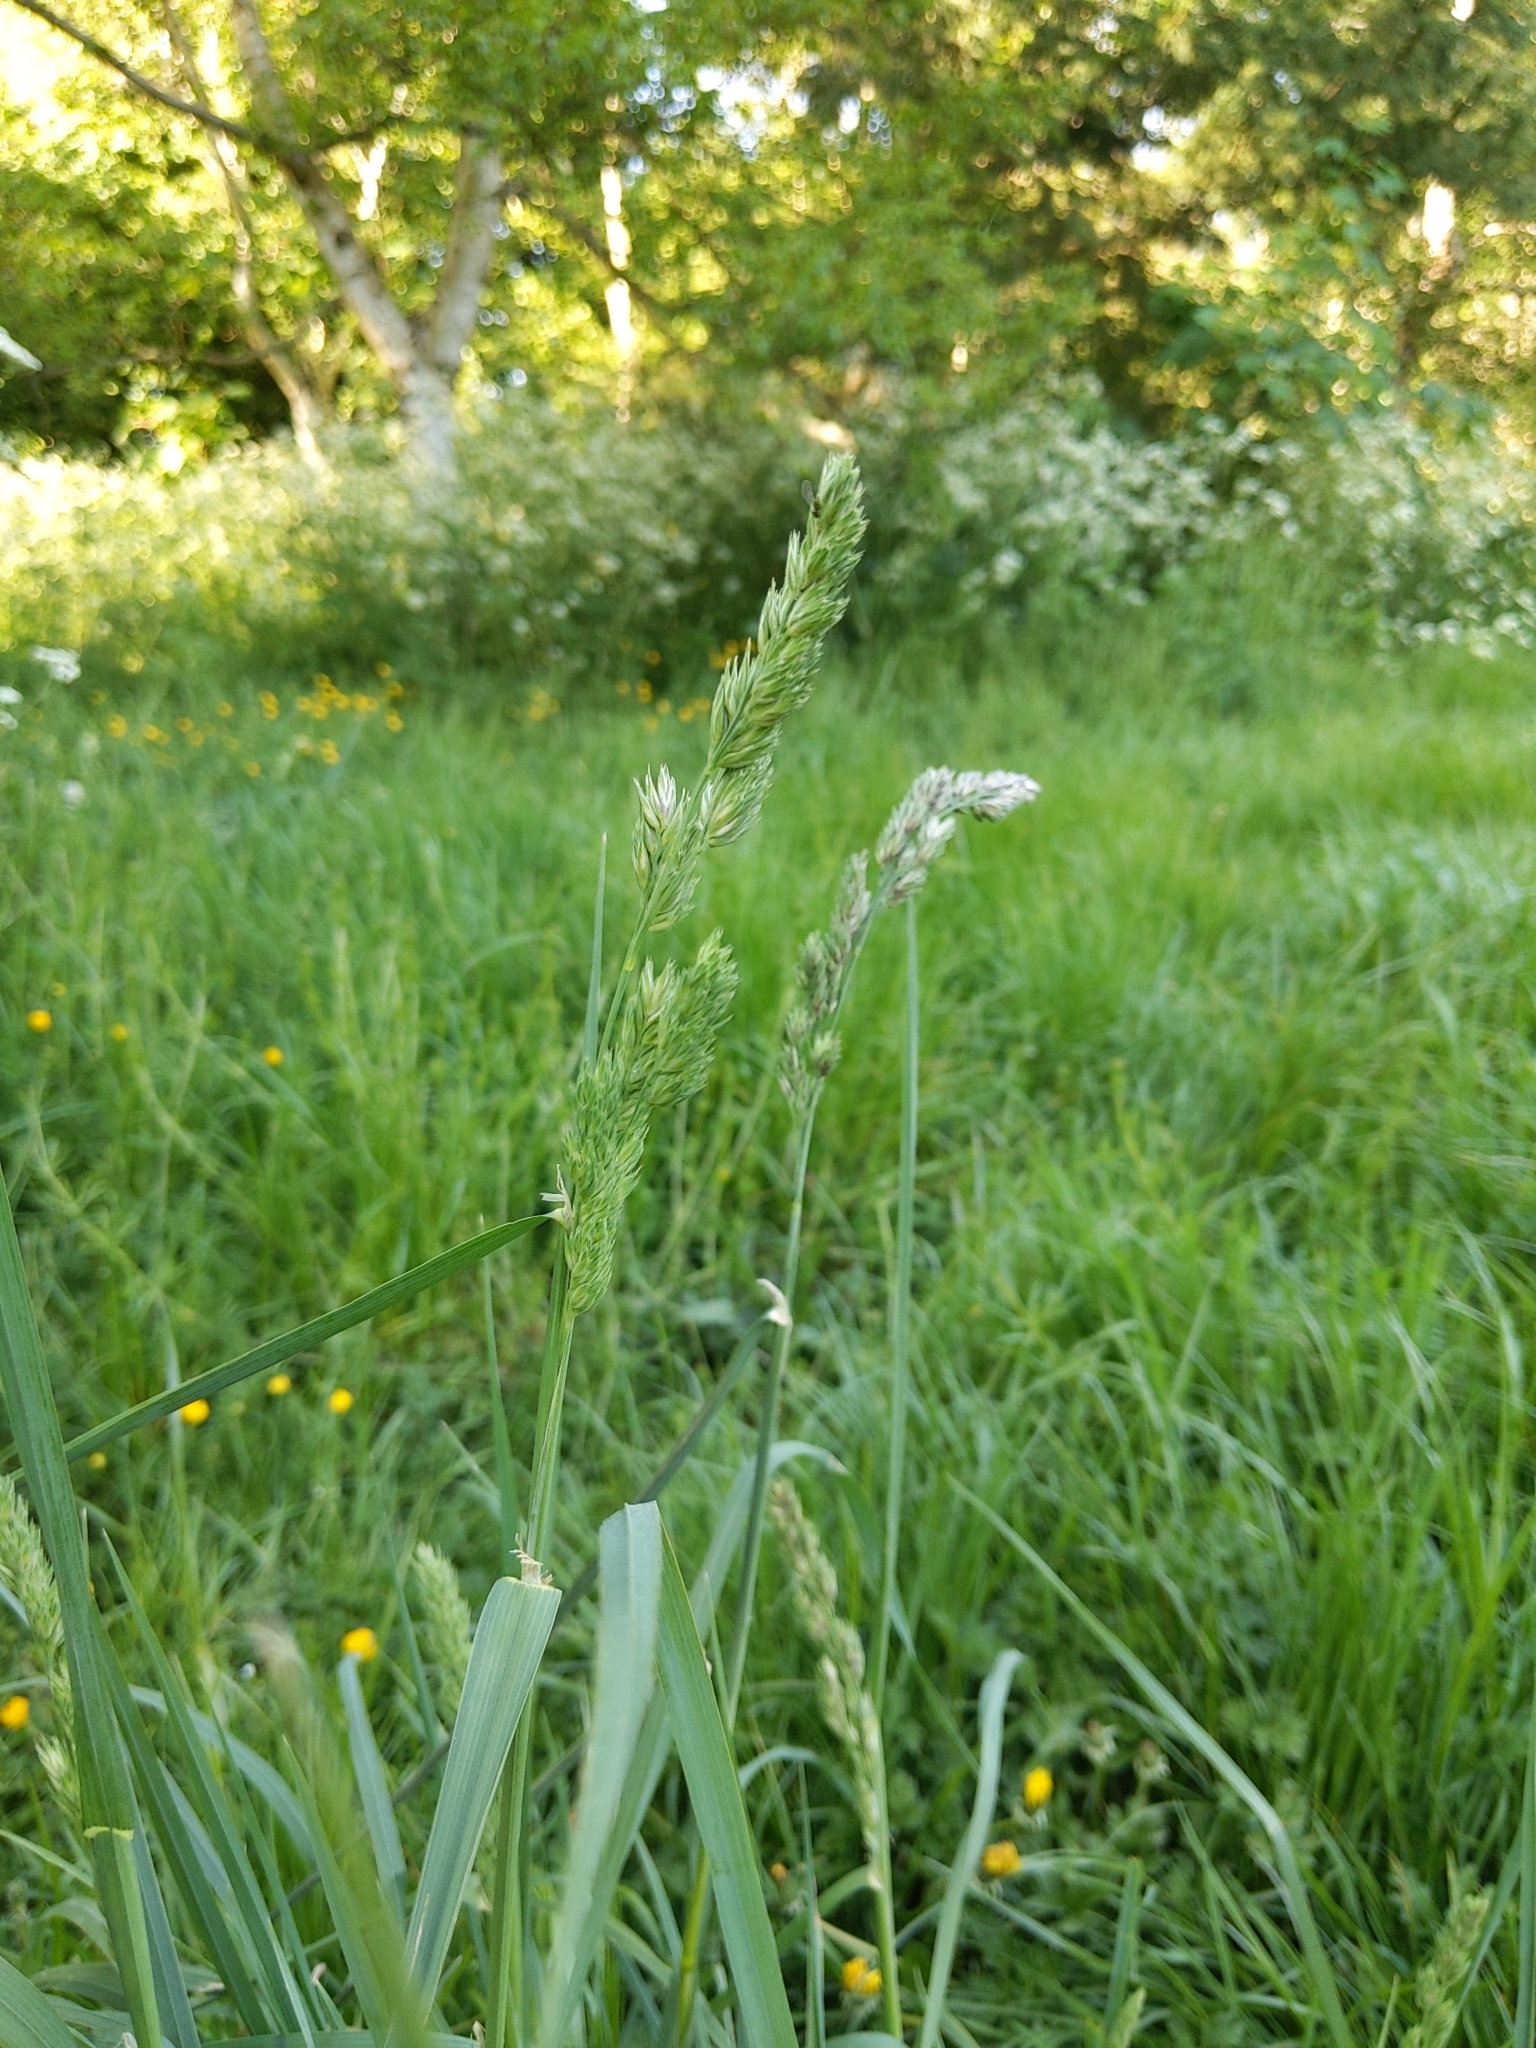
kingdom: Plantae
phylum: Tracheophyta
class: Liliopsida
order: Poales
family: Poaceae
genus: Dactylis
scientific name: Dactylis glomerata
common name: Orchardgrass
